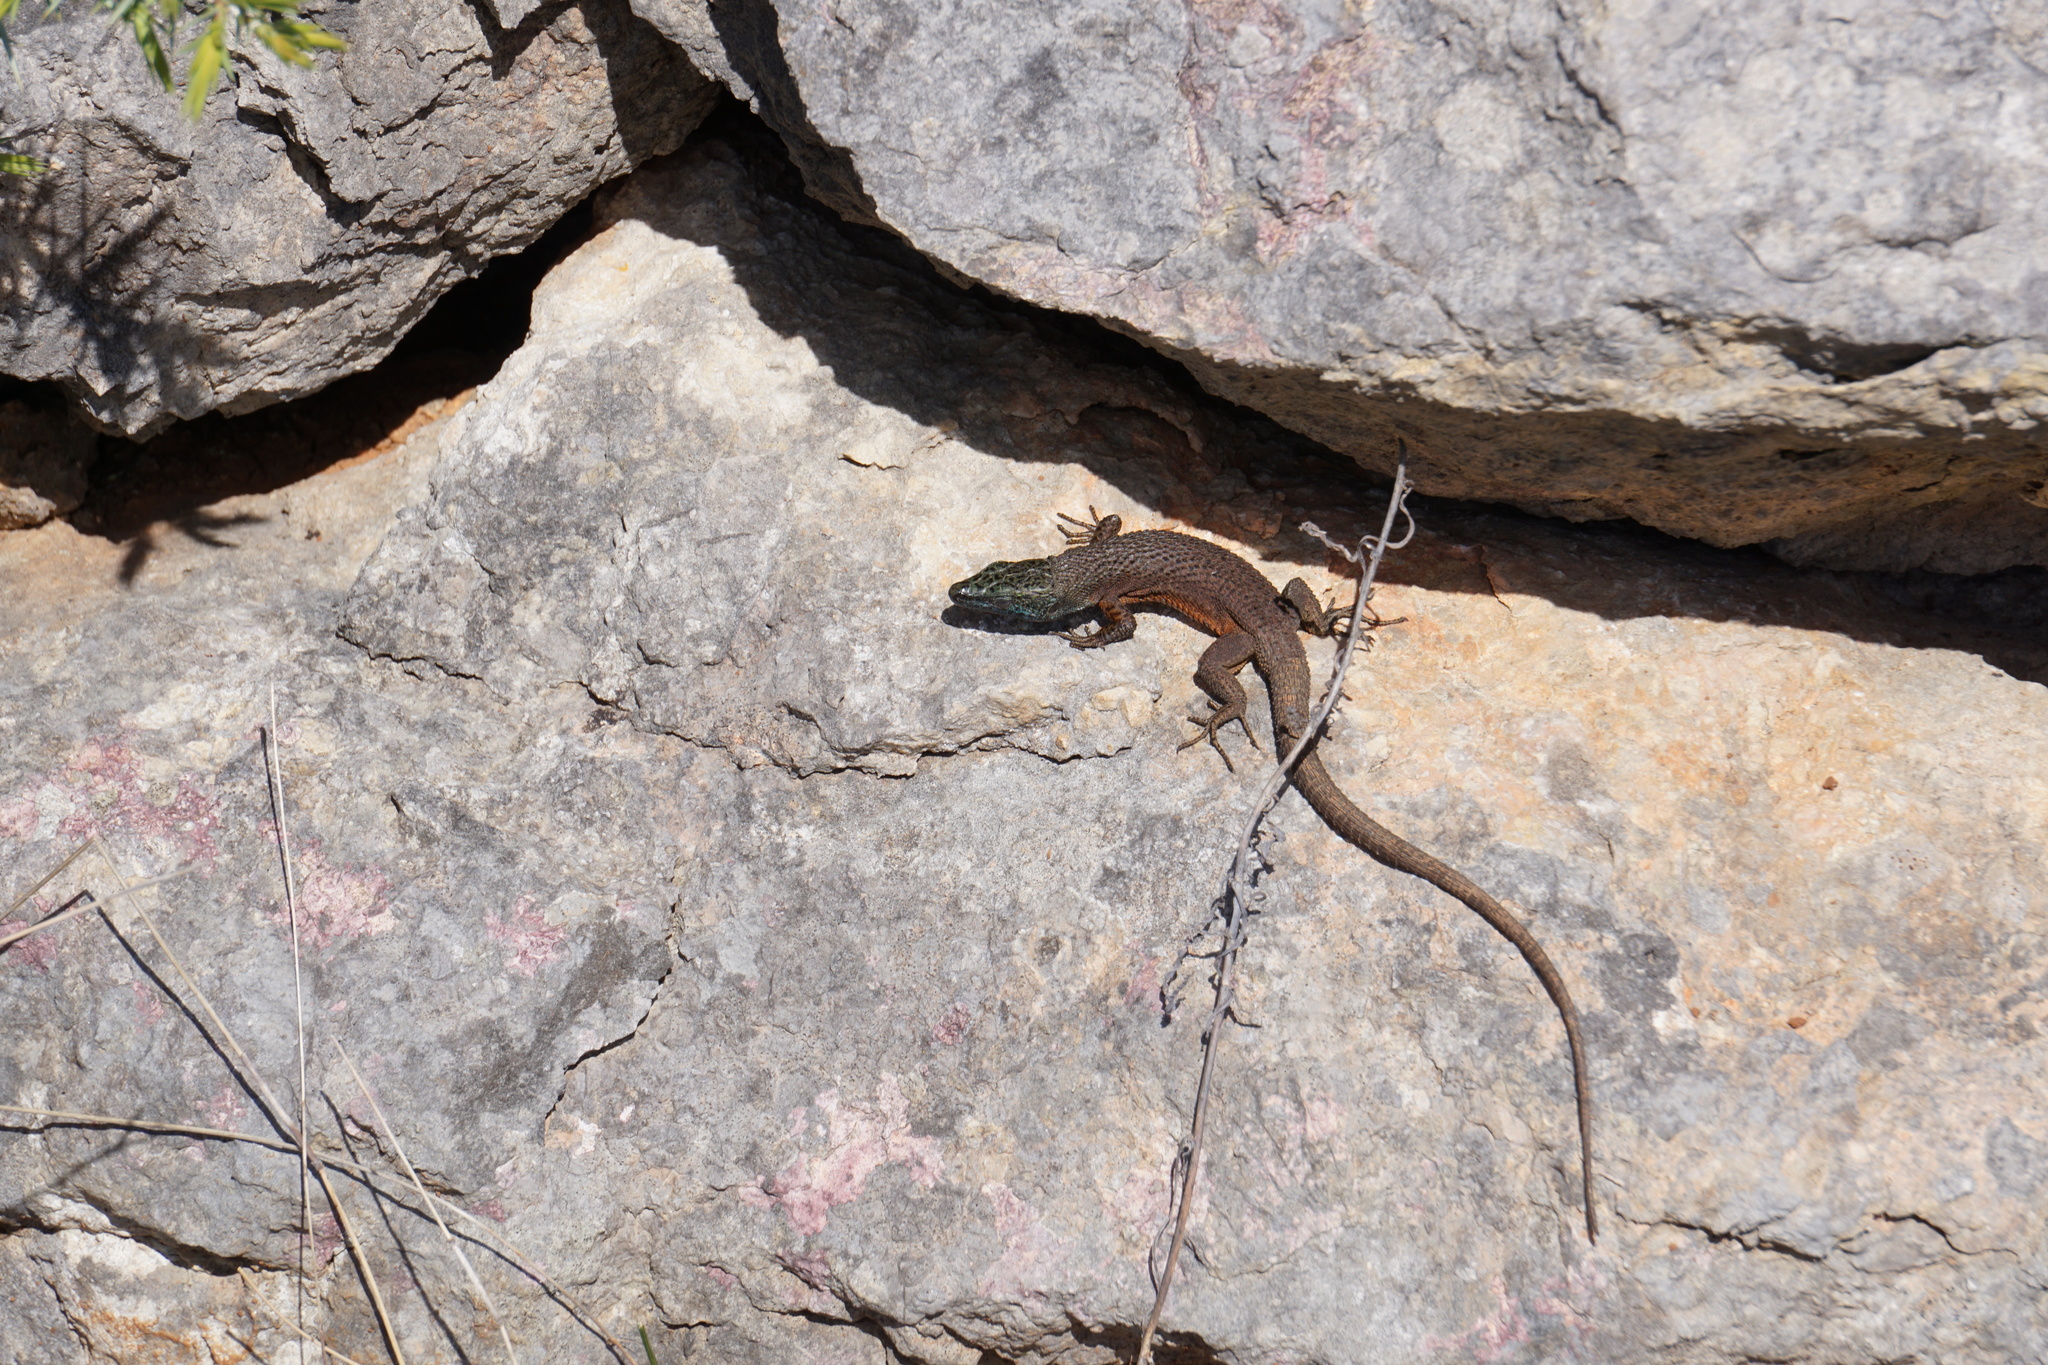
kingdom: Animalia
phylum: Chordata
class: Squamata
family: Lacertidae
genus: Algyroides
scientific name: Algyroides nigropunctatus
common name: Blue-throated keeled lizard
